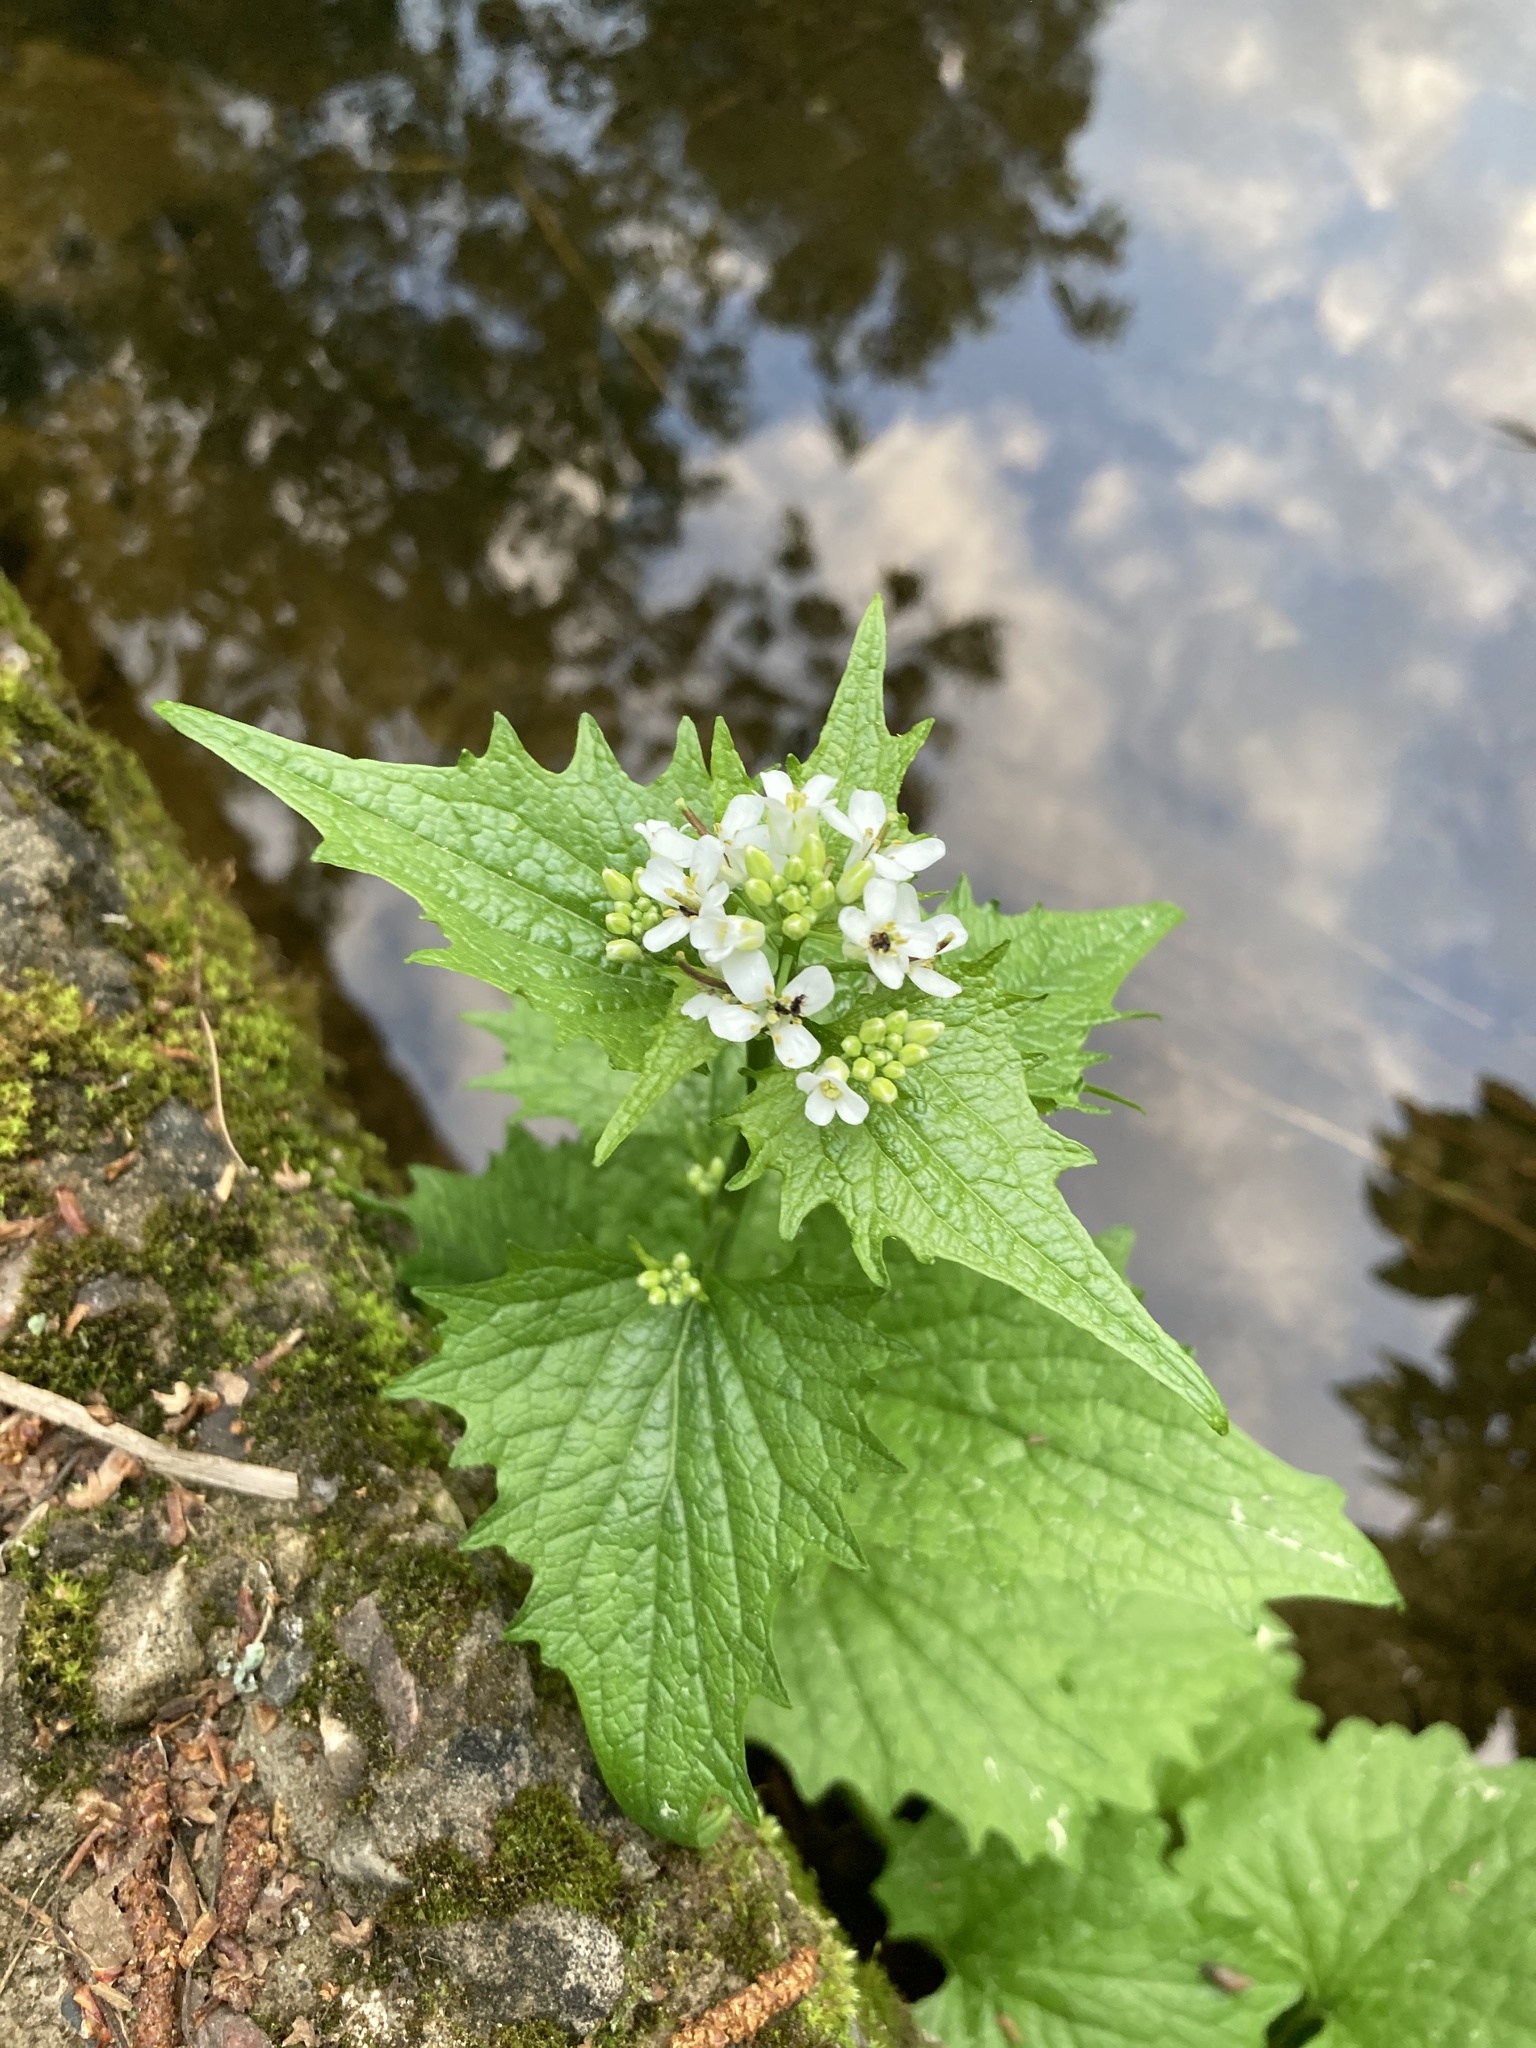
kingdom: Plantae
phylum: Tracheophyta
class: Magnoliopsida
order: Brassicales
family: Brassicaceae
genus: Alliaria
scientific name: Alliaria petiolata
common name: Garlic mustard
